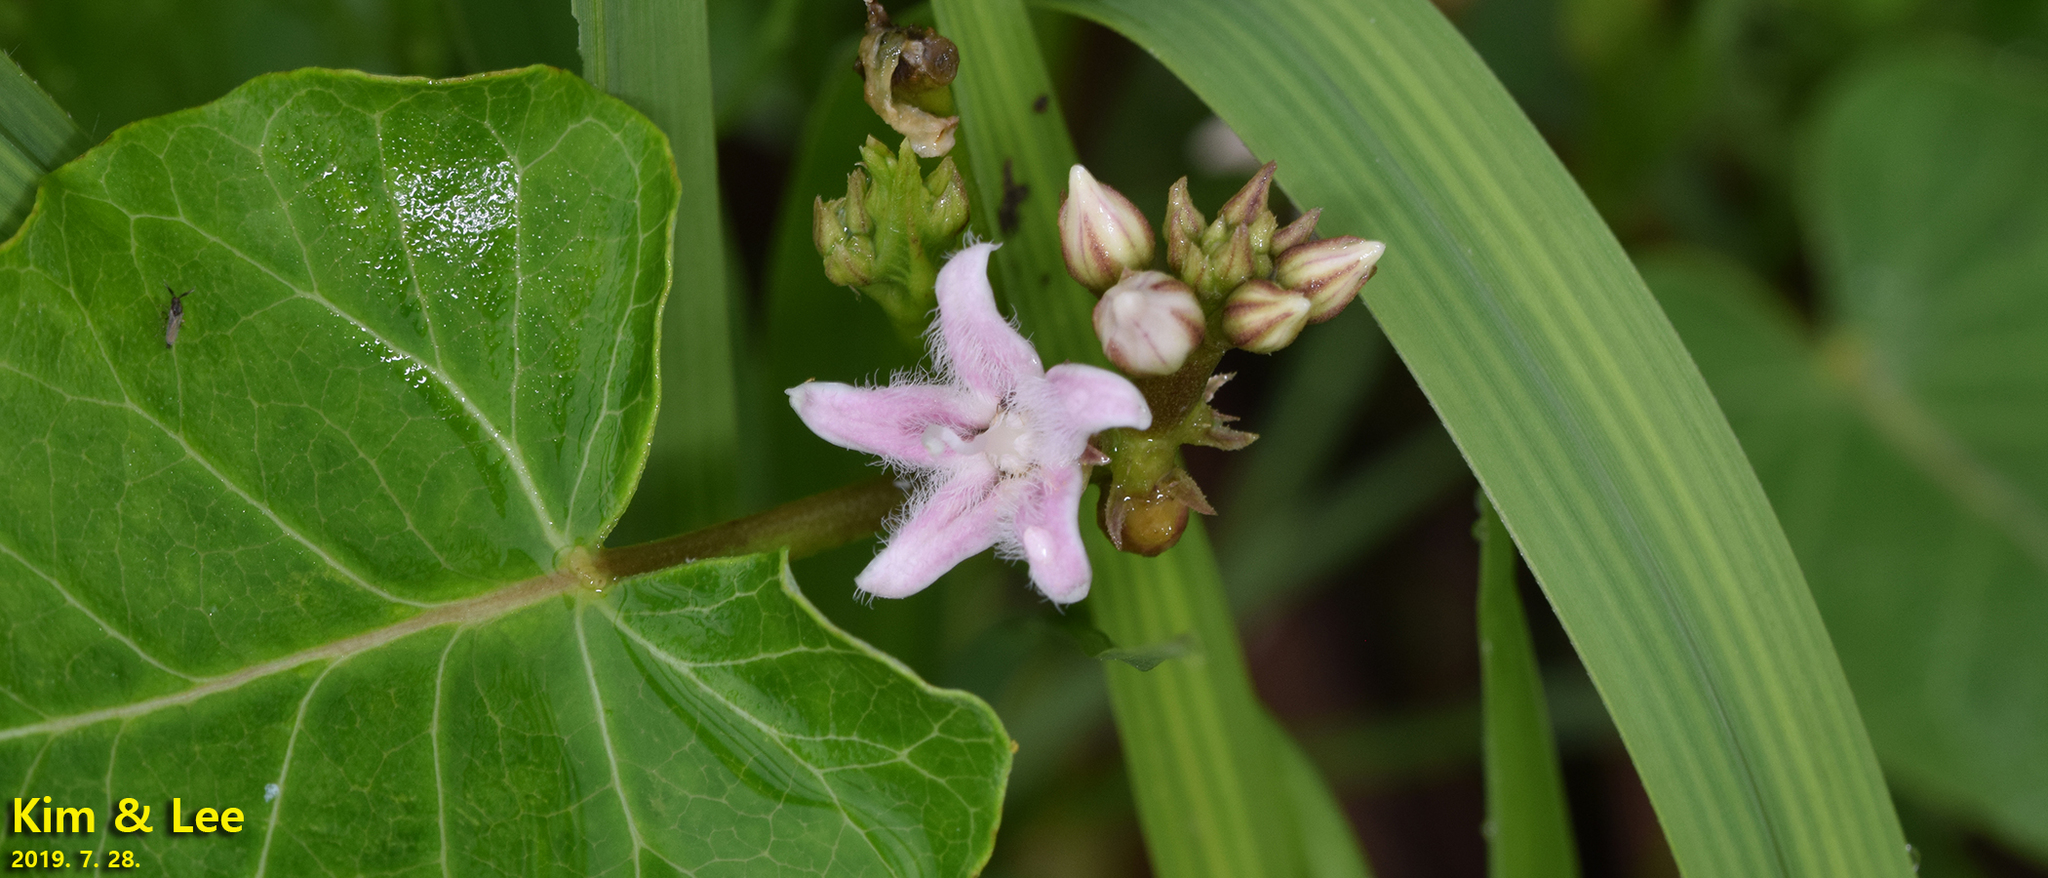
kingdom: Plantae
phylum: Tracheophyta
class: Magnoliopsida
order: Gentianales
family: Apocynaceae
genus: Cynanchum
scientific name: Cynanchum rostellatum
